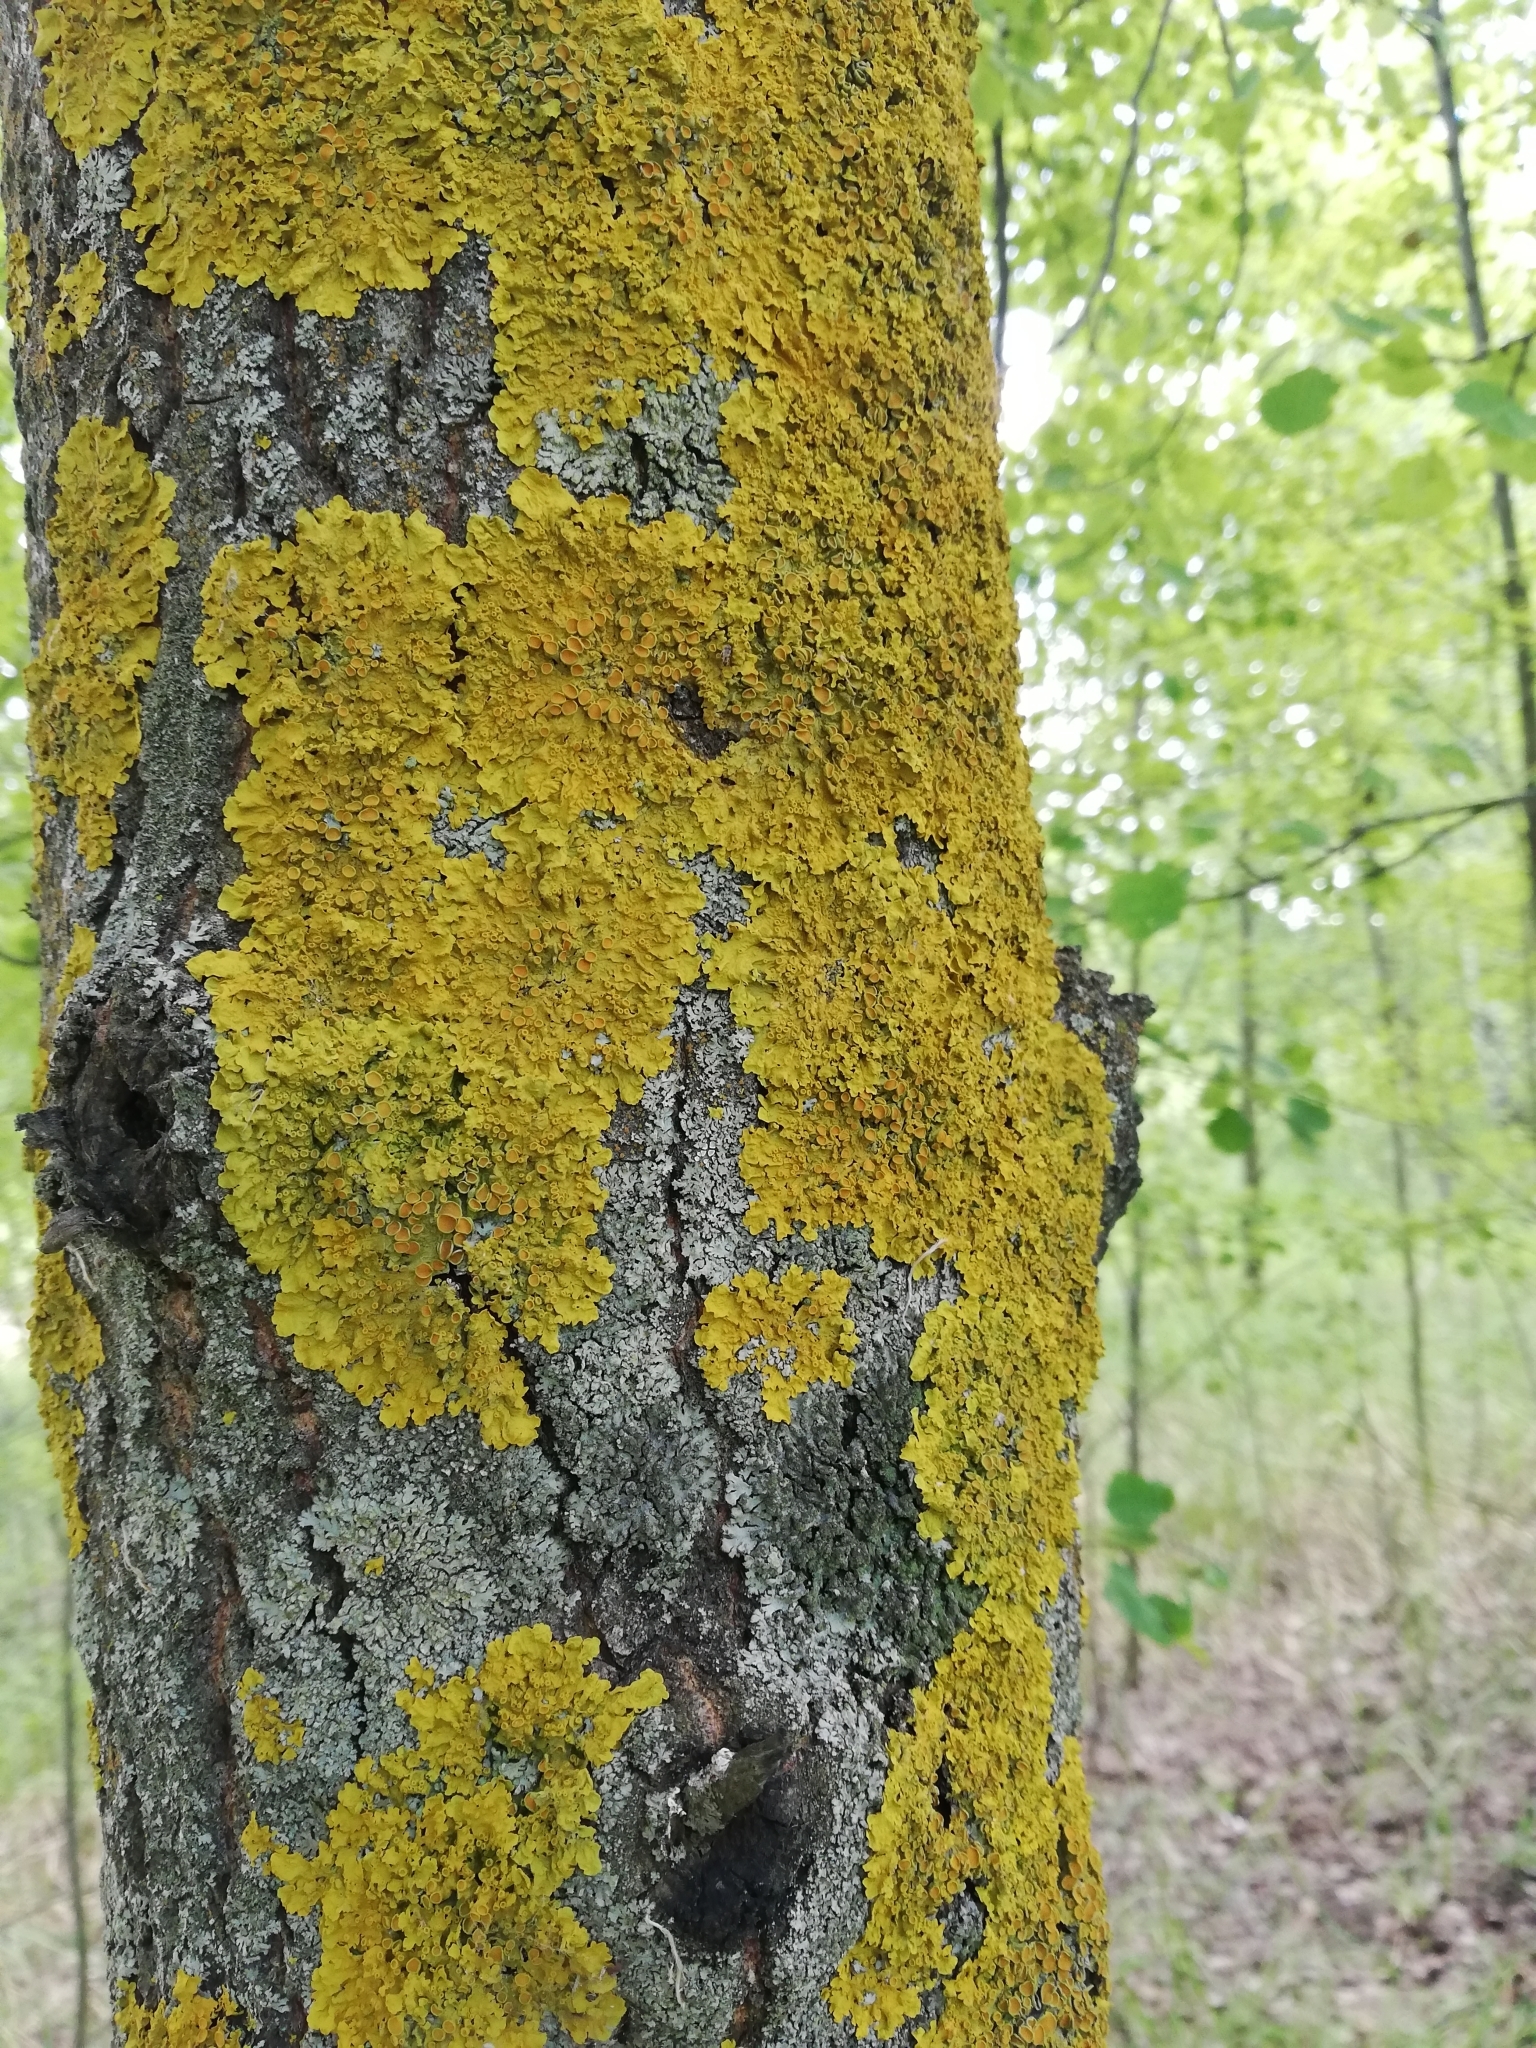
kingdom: Fungi
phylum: Ascomycota
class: Lecanoromycetes
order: Teloschistales
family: Teloschistaceae
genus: Xanthoria
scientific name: Xanthoria parietina
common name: Common orange lichen
